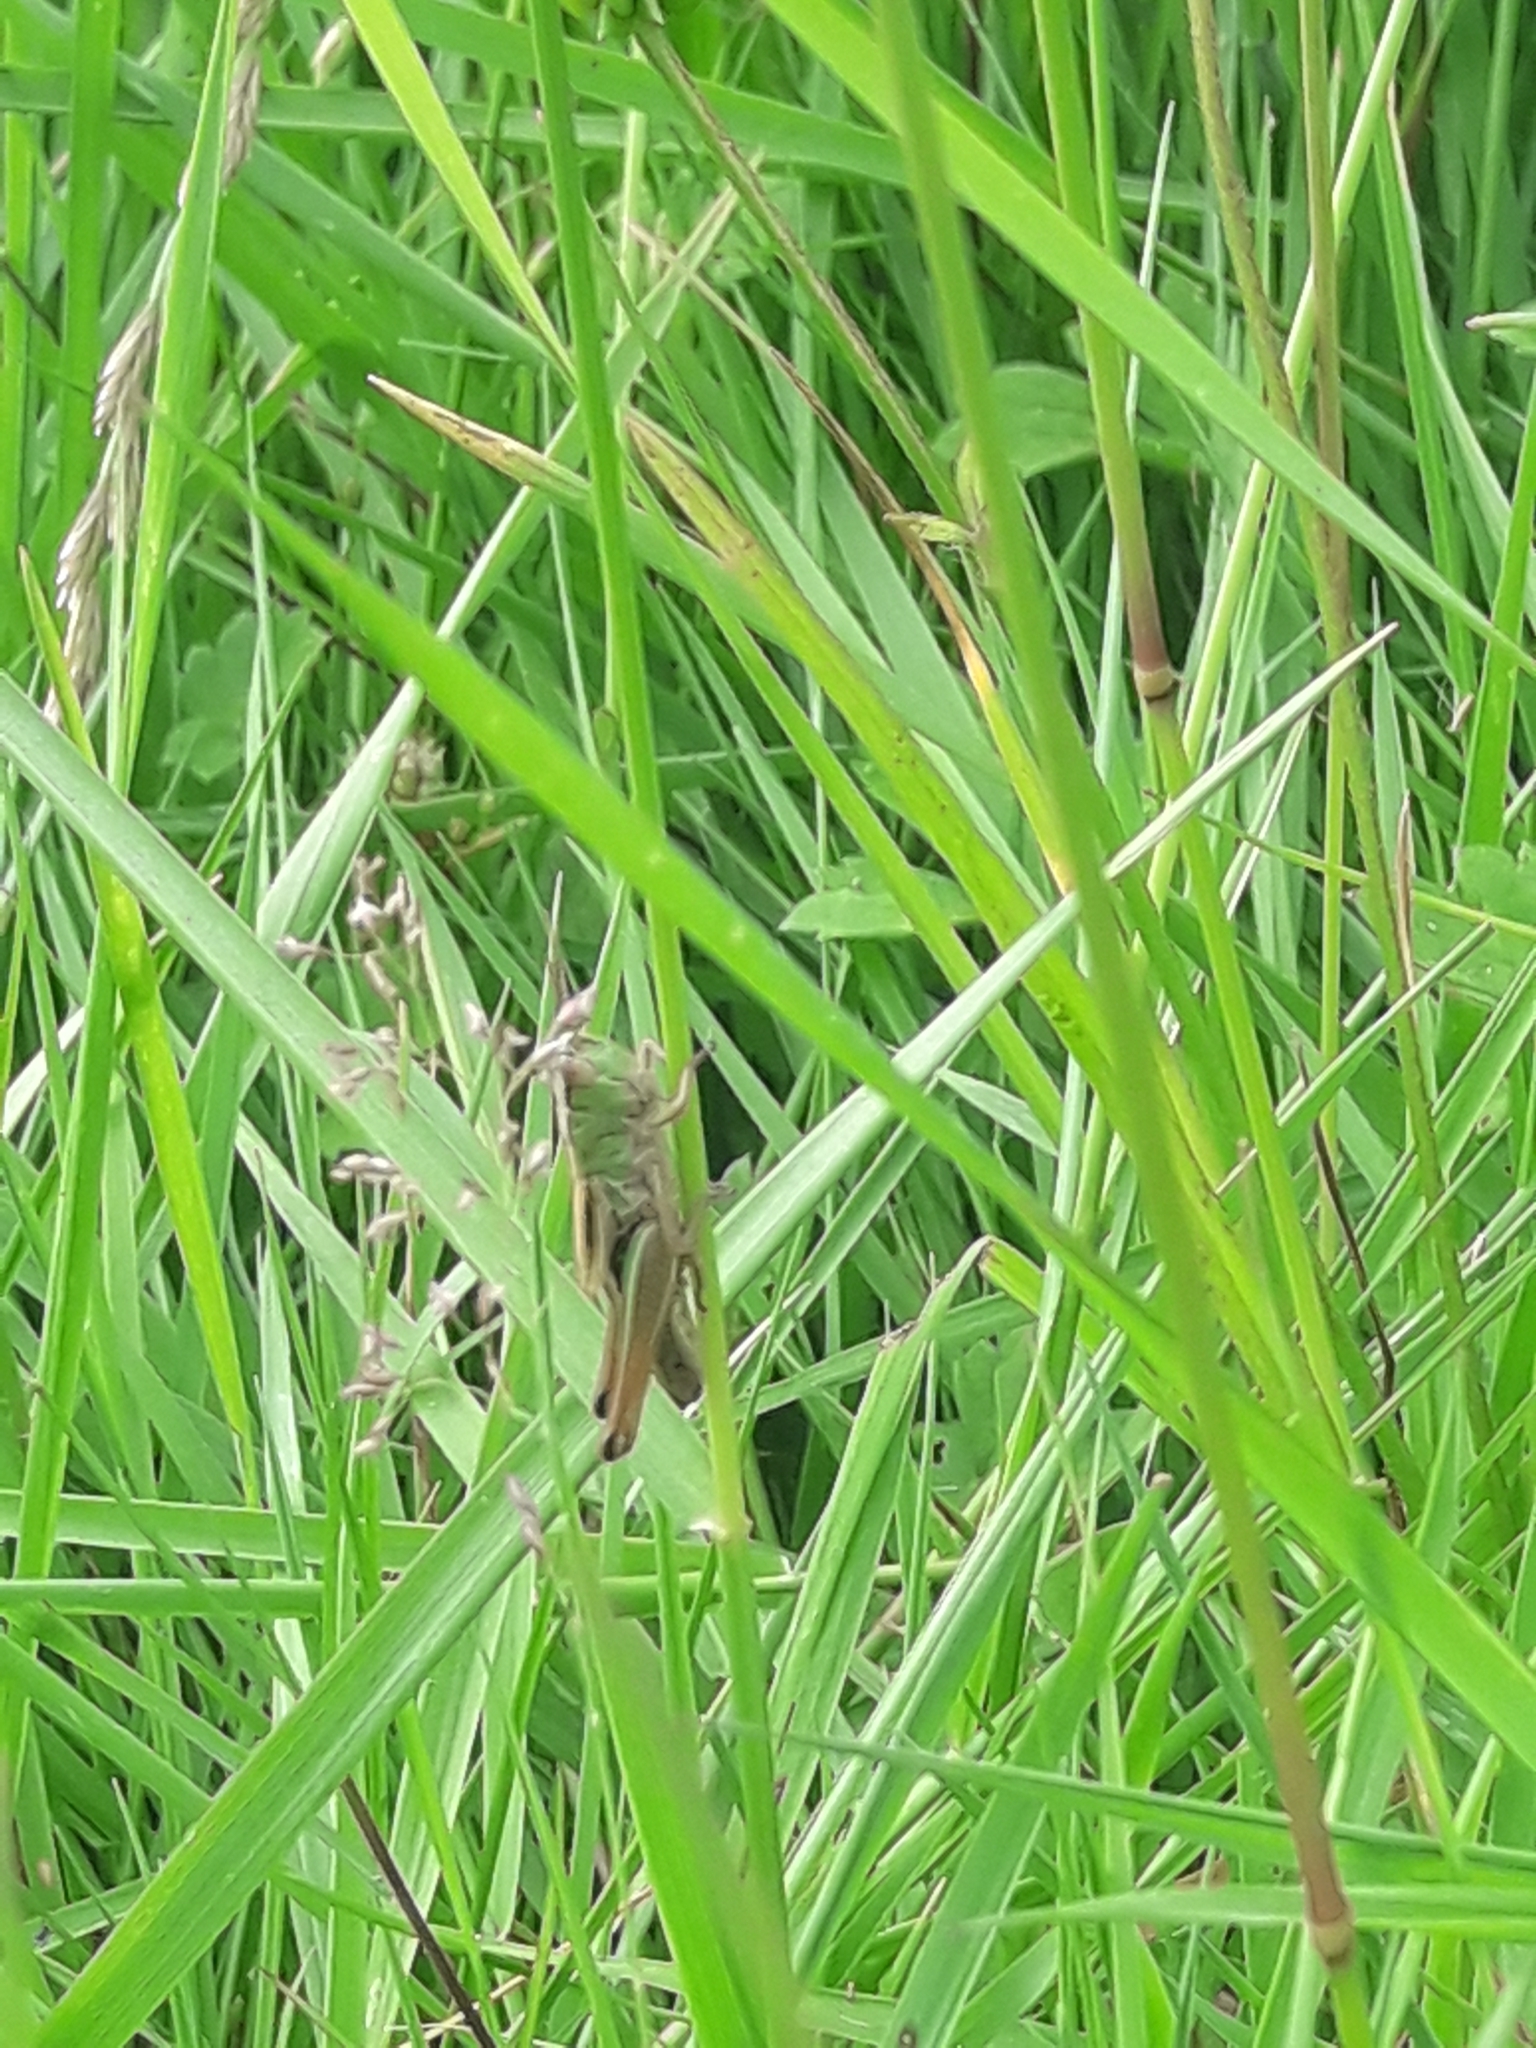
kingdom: Animalia
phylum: Arthropoda
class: Insecta
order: Orthoptera
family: Acrididae
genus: Pseudochorthippus
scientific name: Pseudochorthippus parallelus
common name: Meadow grasshopper
